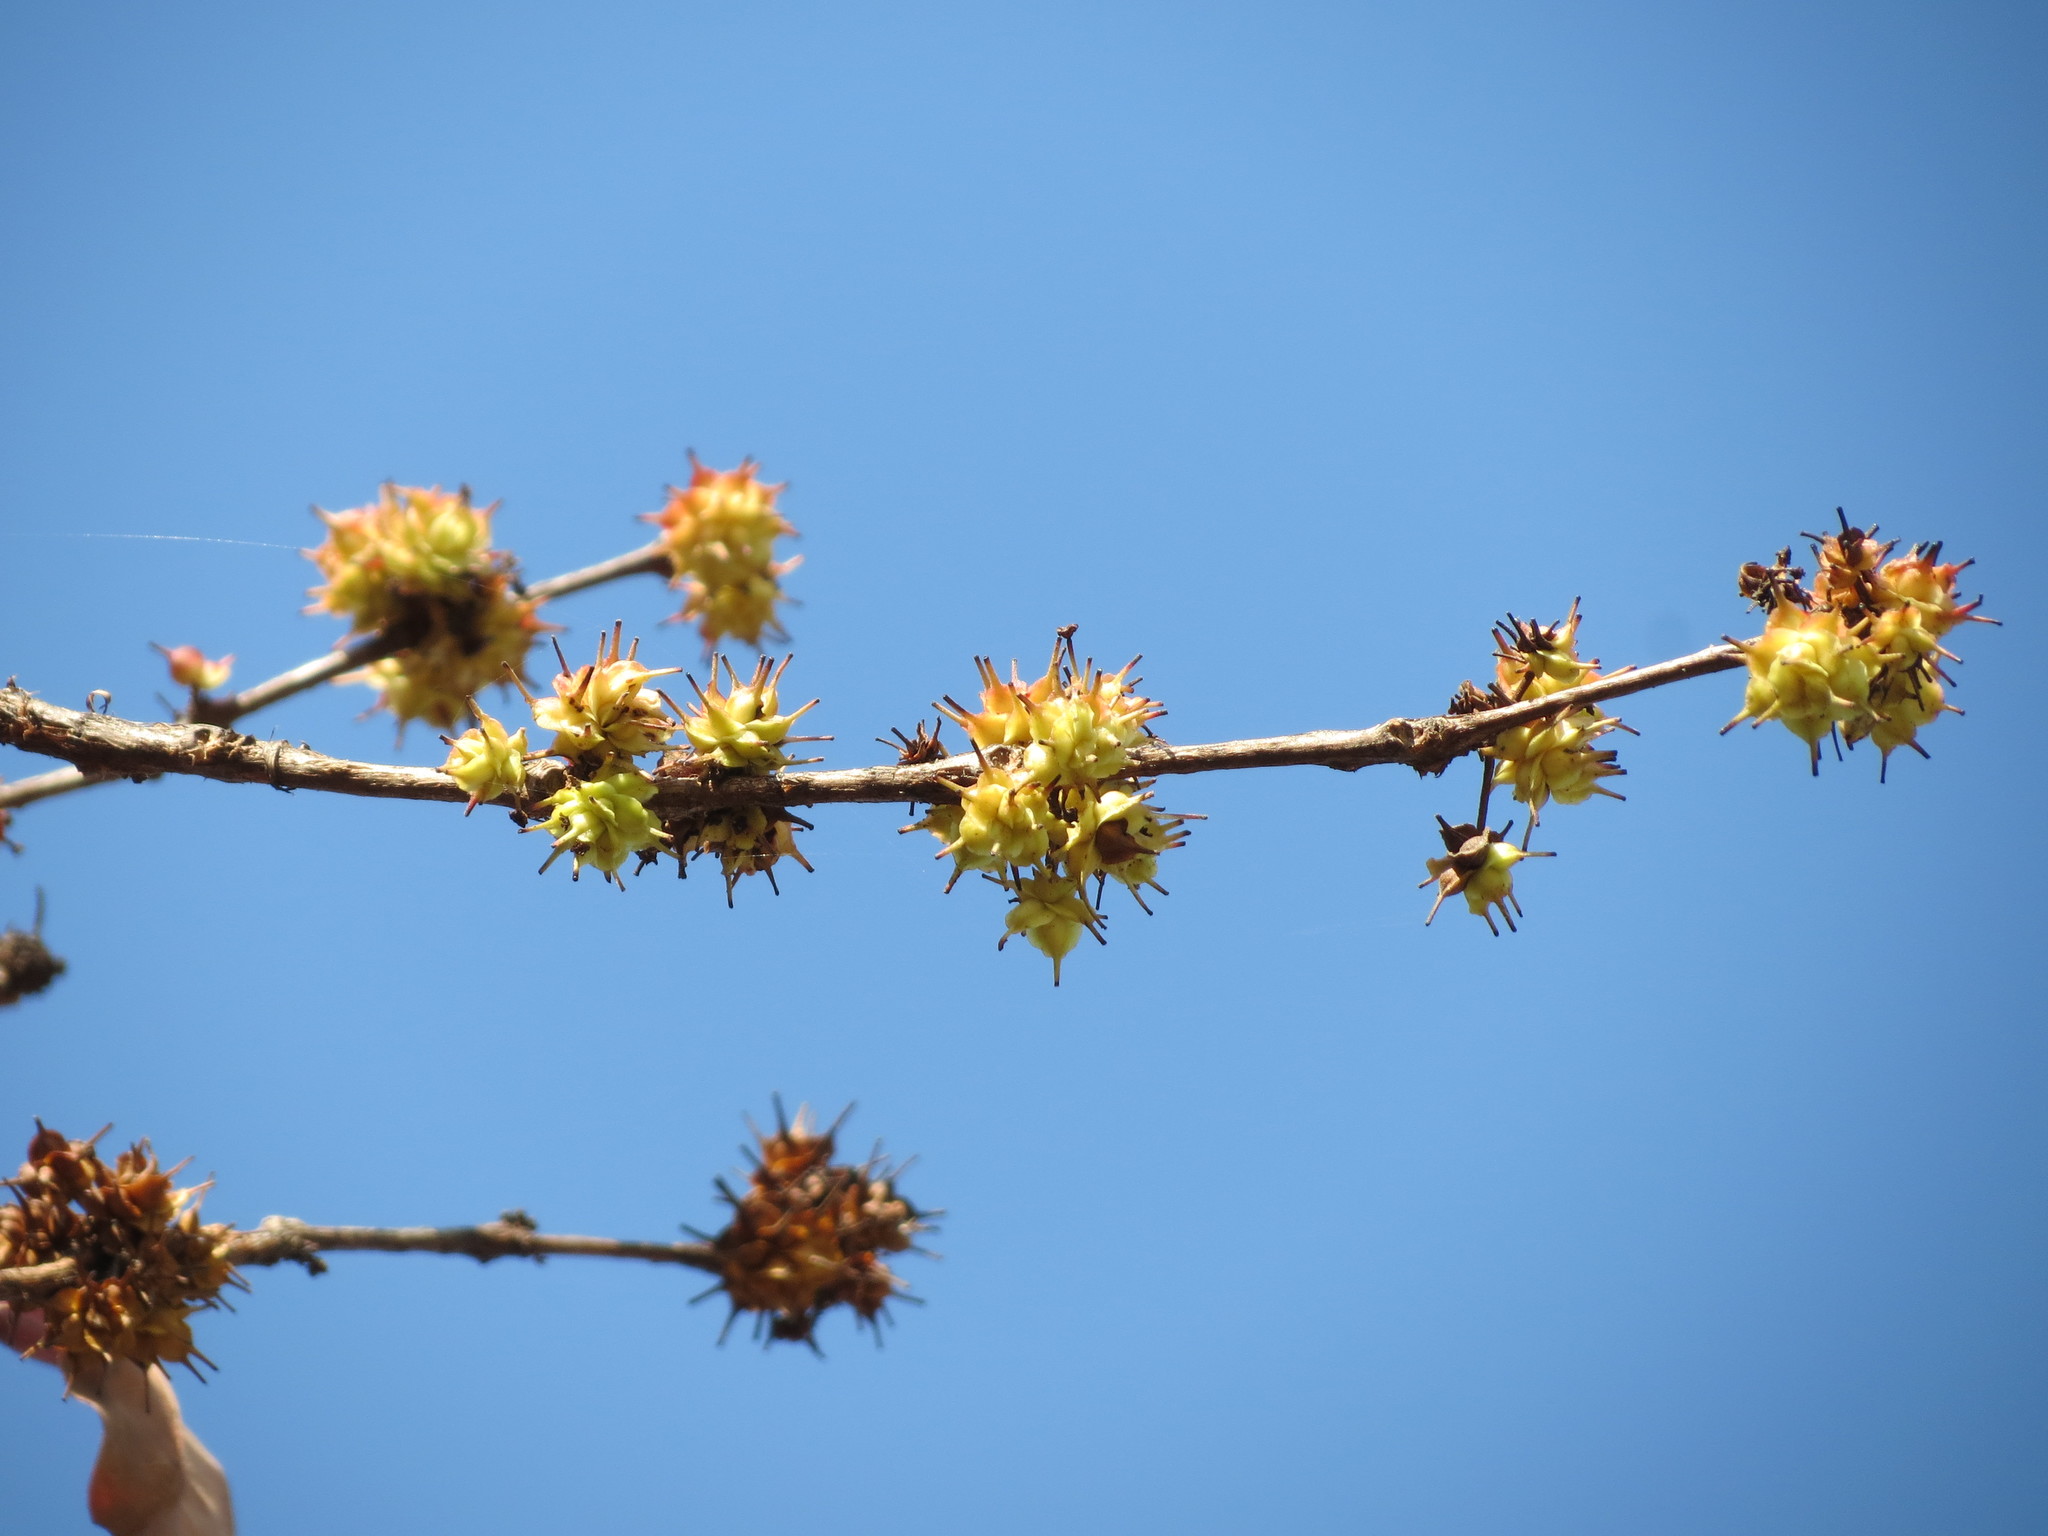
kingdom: Plantae
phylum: Tracheophyta
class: Magnoliopsida
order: Myrtales
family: Combretaceae
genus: Terminalia
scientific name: Terminalia latifolia
